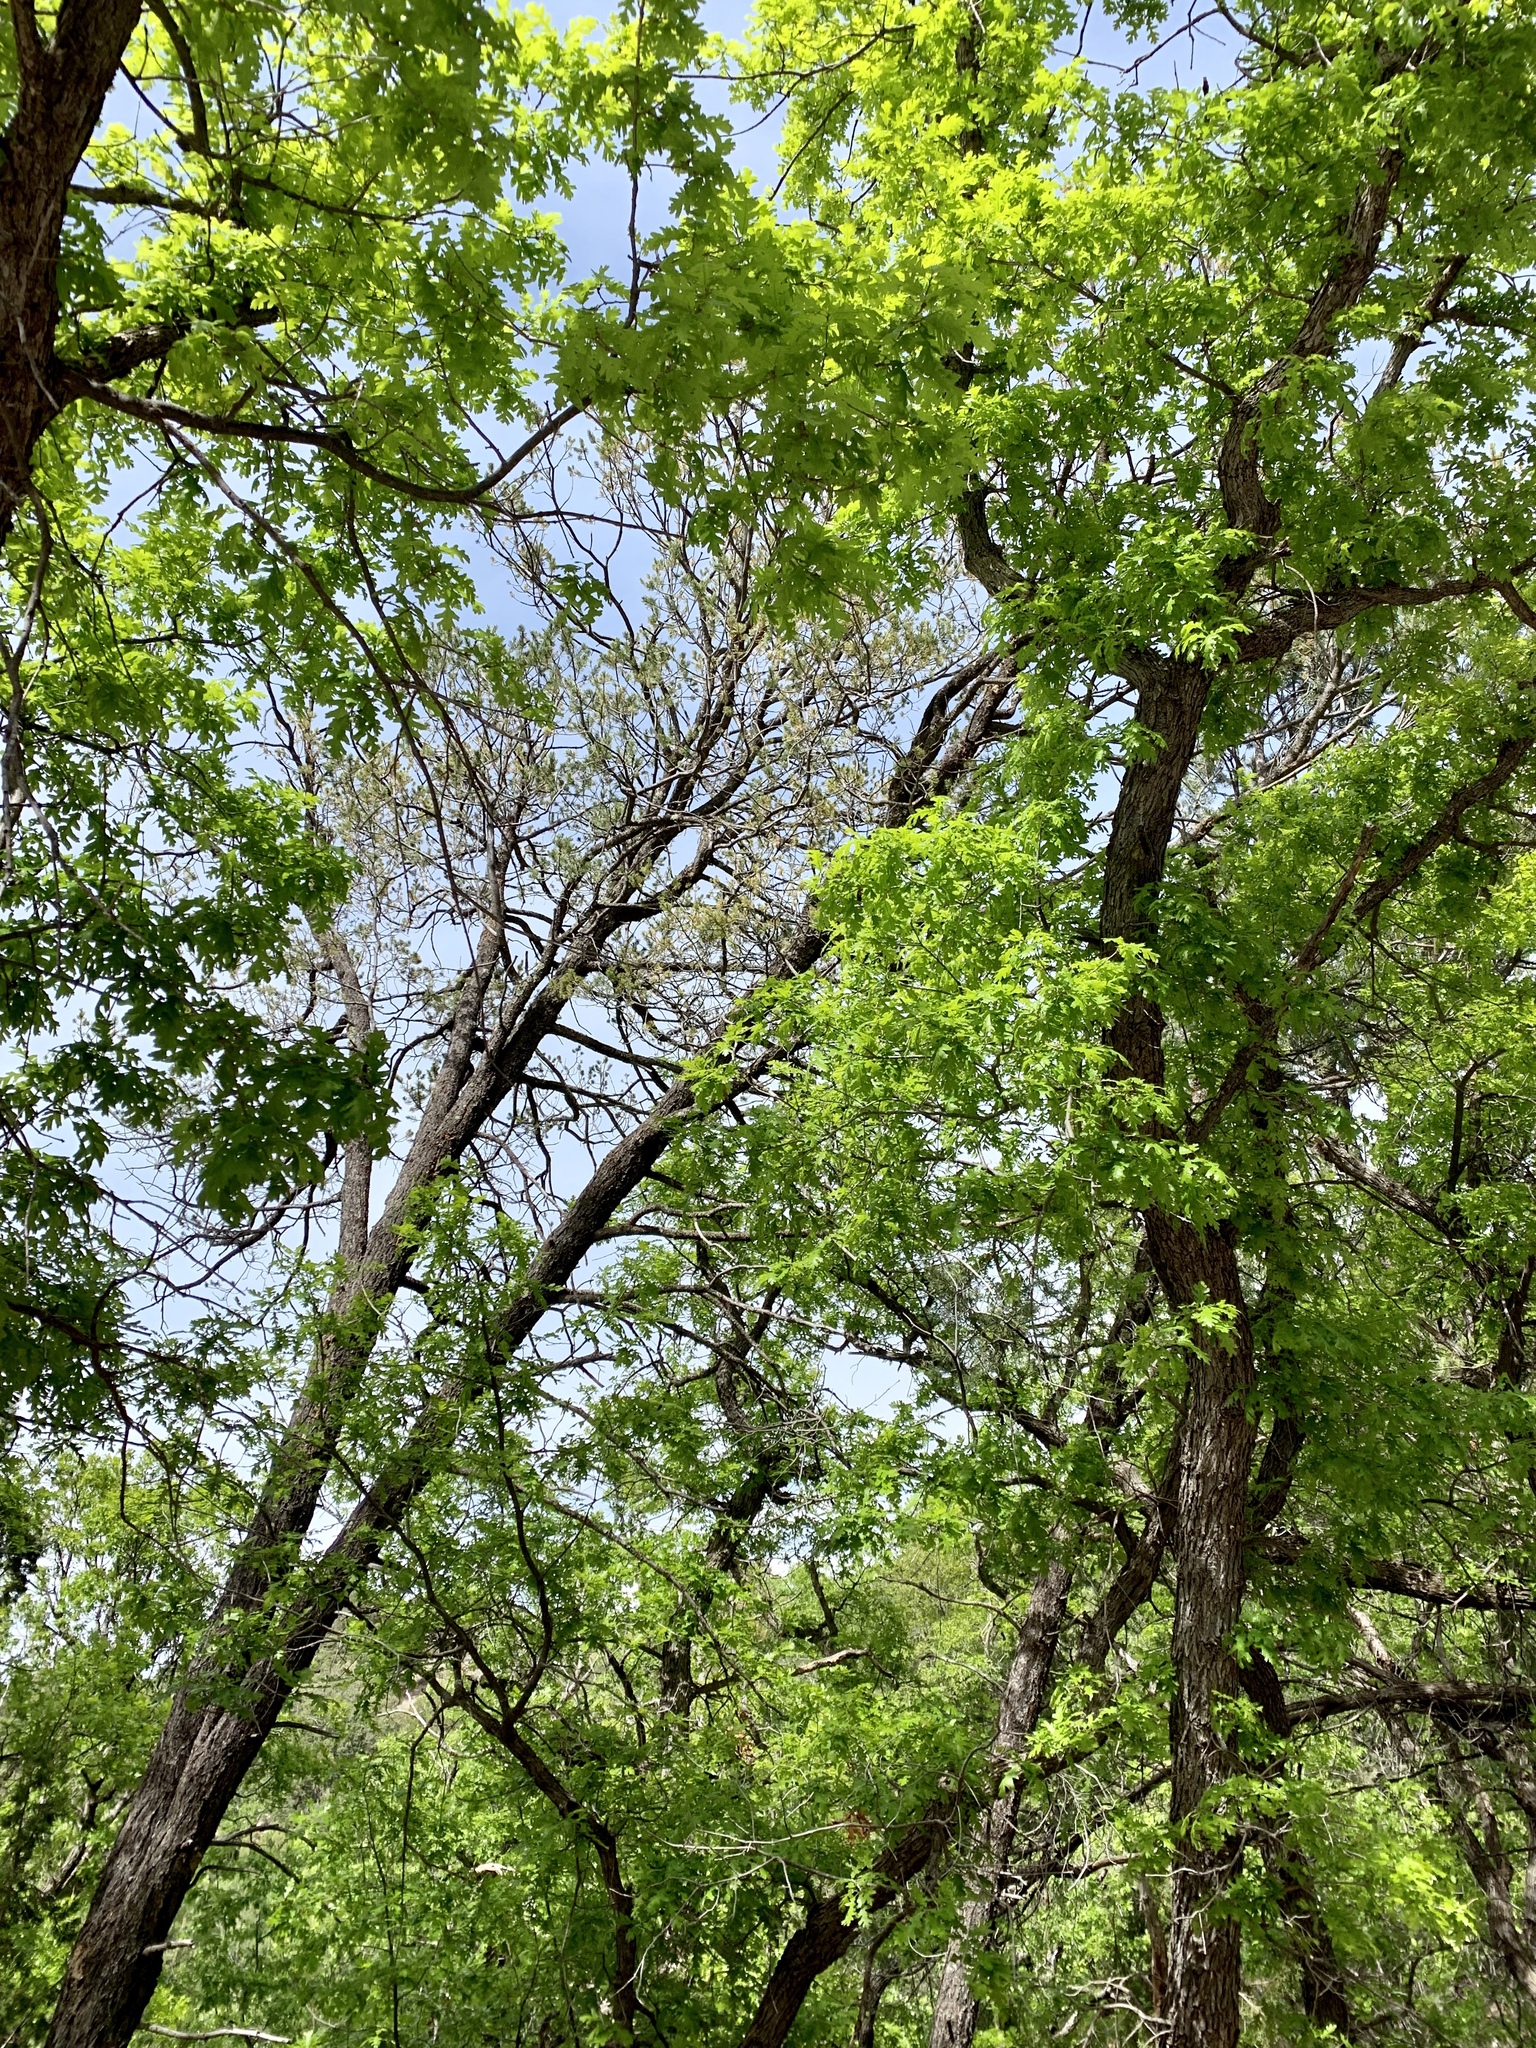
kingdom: Plantae
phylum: Tracheophyta
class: Magnoliopsida
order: Fagales
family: Fagaceae
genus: Quercus
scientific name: Quercus gambelii
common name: Gambel oak
